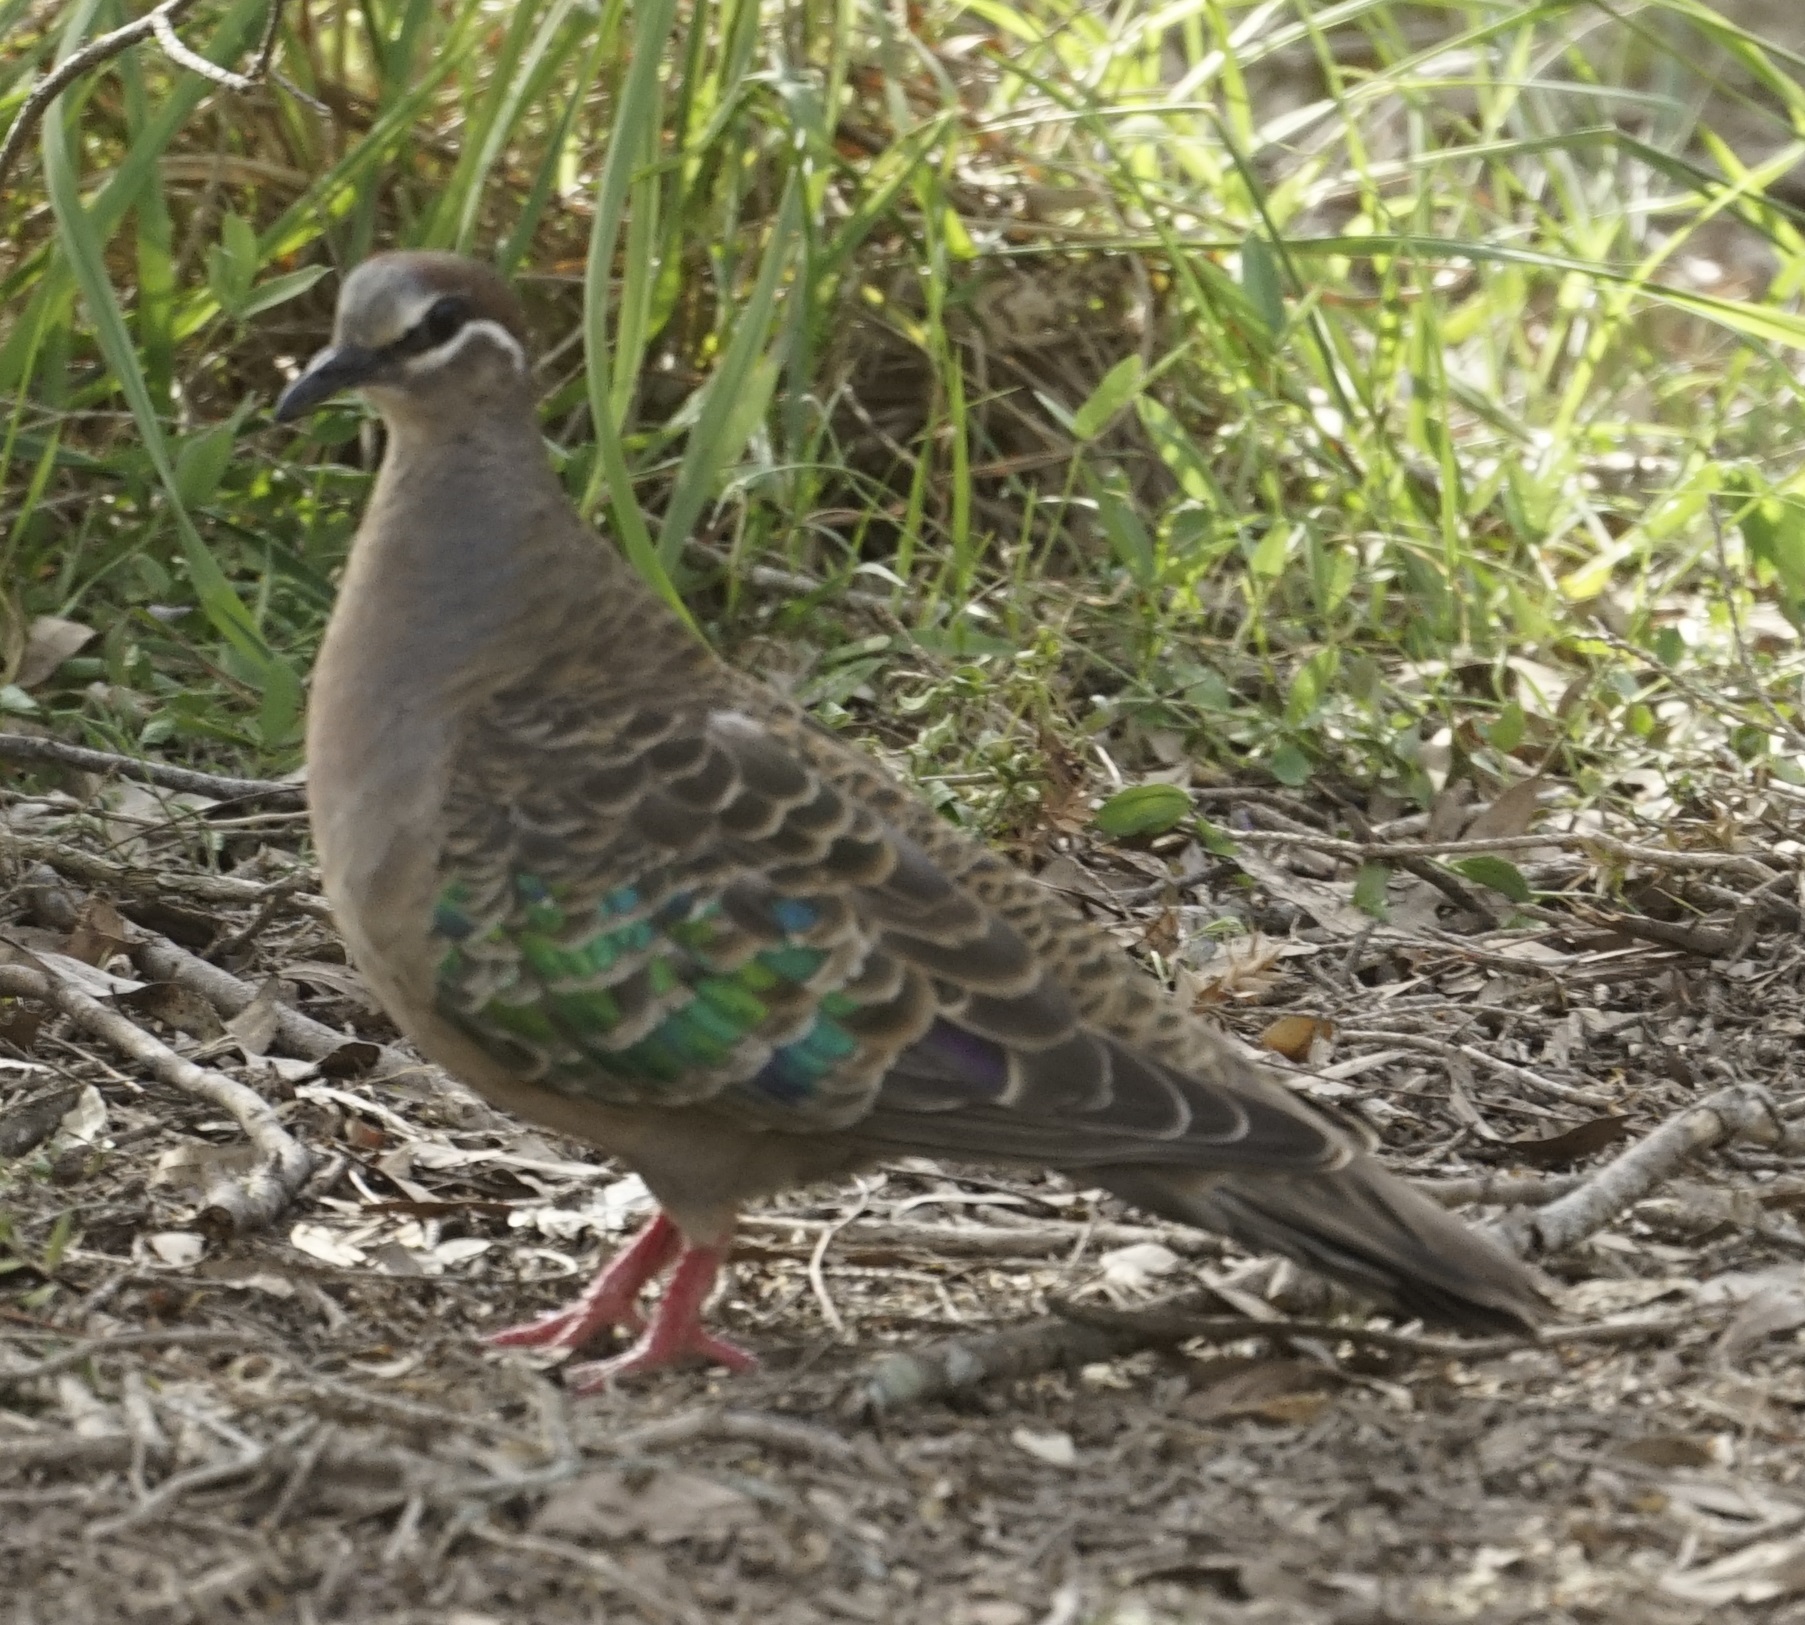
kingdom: Animalia
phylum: Chordata
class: Aves
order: Columbiformes
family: Columbidae
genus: Phaps
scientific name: Phaps chalcoptera
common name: Common bronzewing
